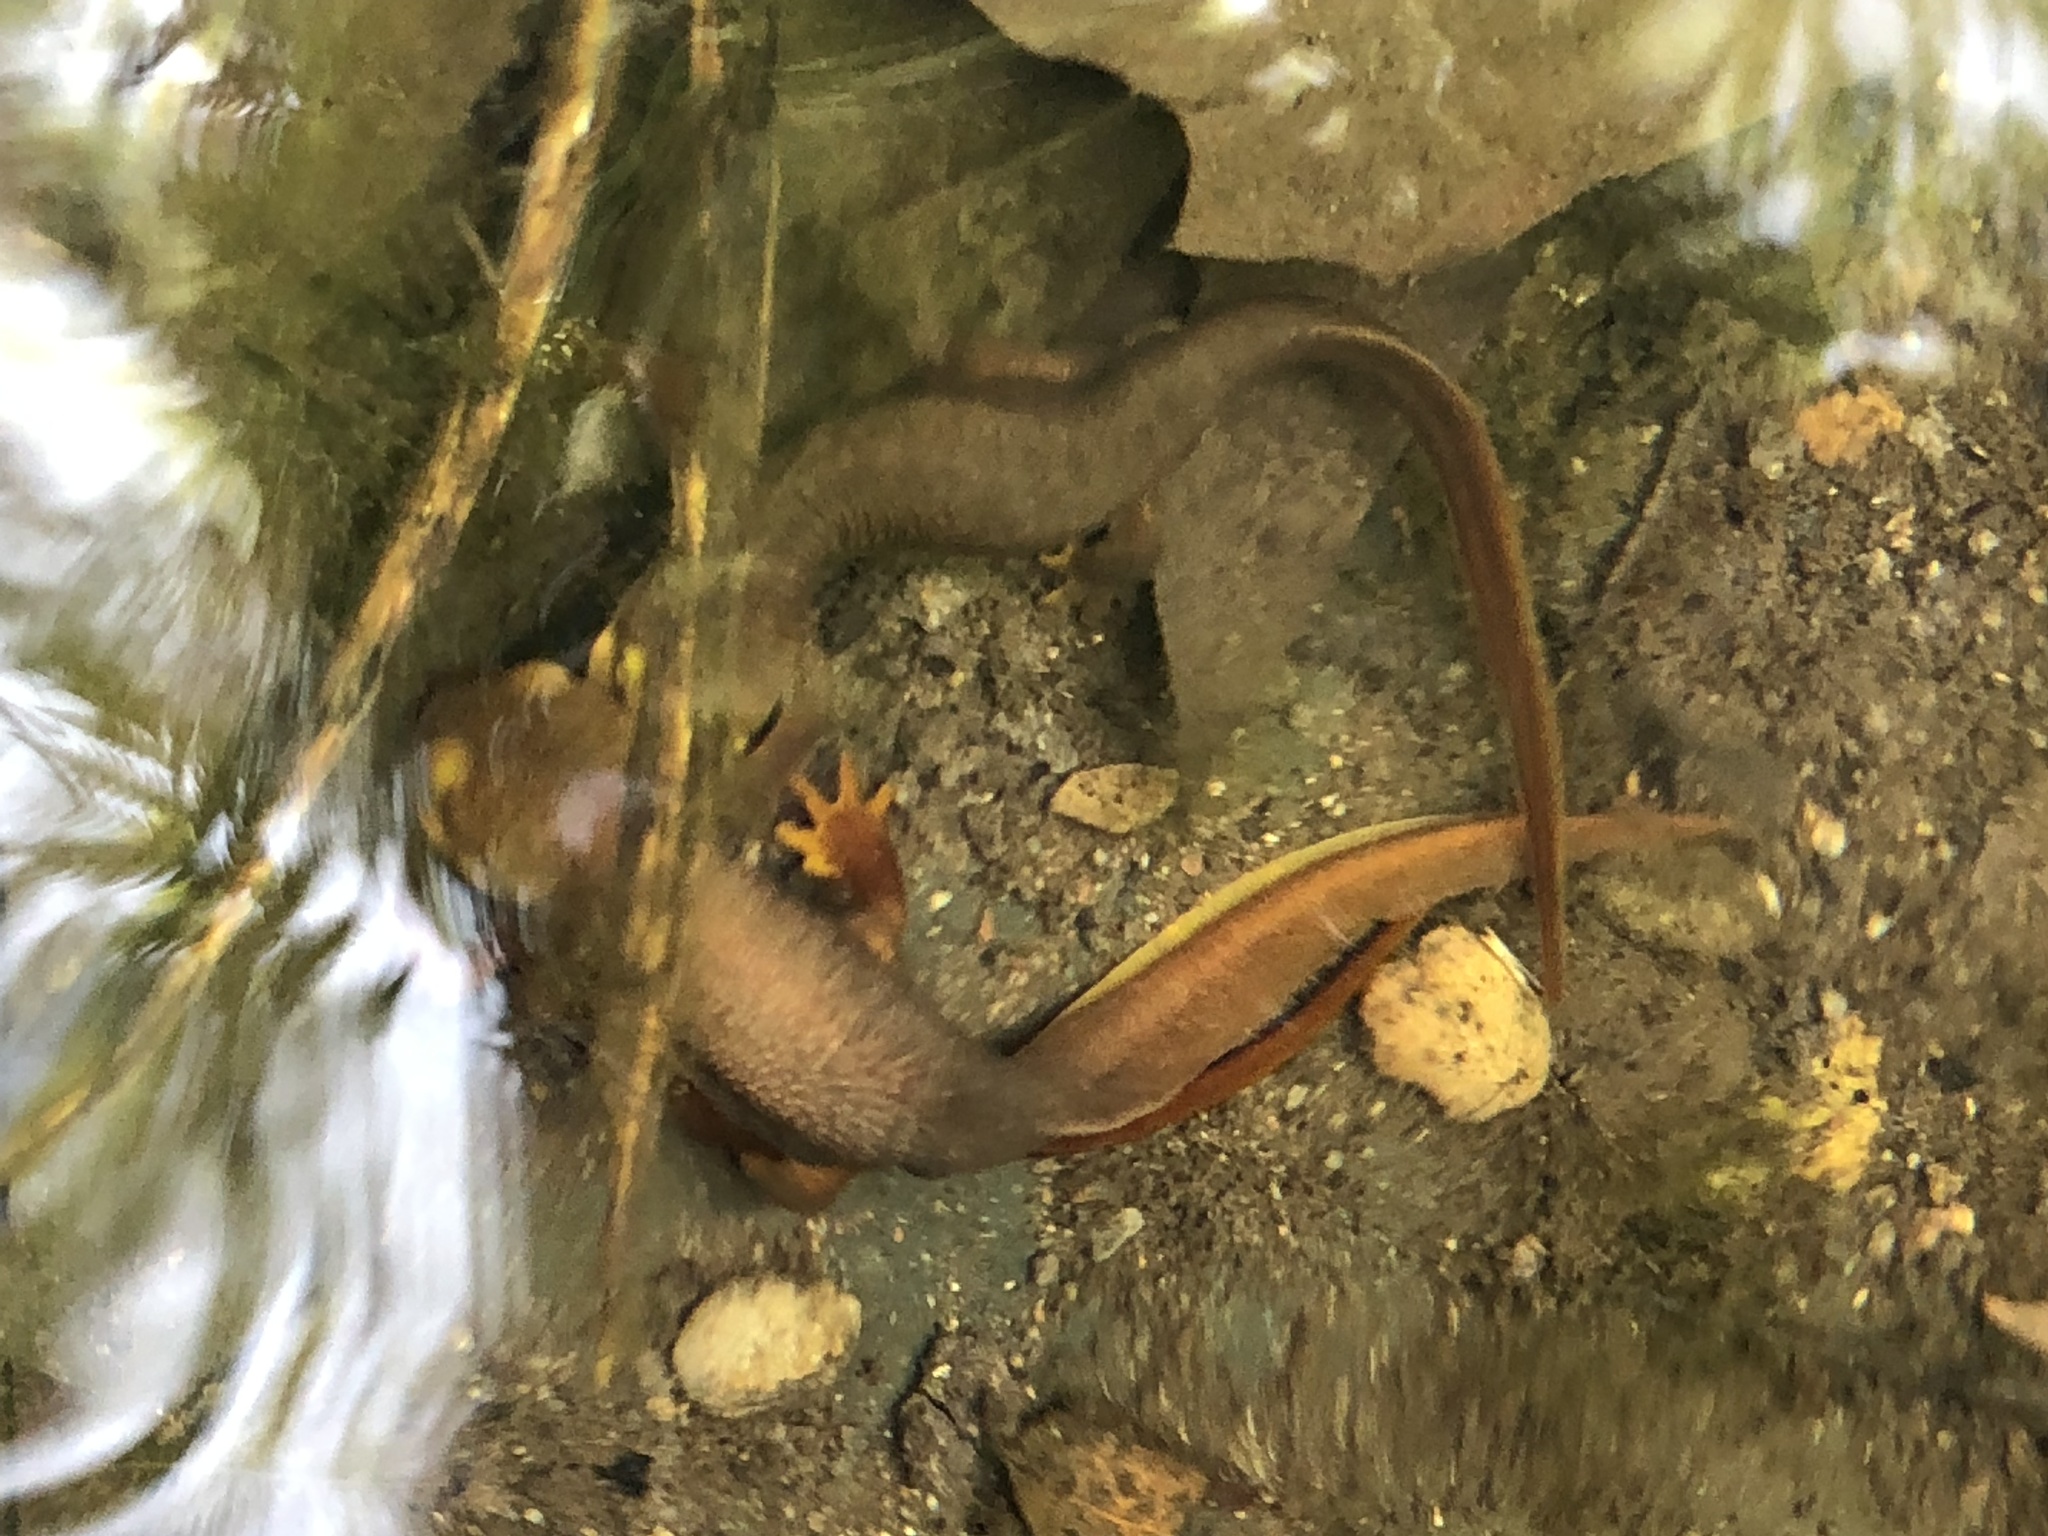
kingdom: Animalia
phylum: Chordata
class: Amphibia
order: Caudata
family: Salamandridae
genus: Taricha
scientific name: Taricha torosa
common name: California newt
